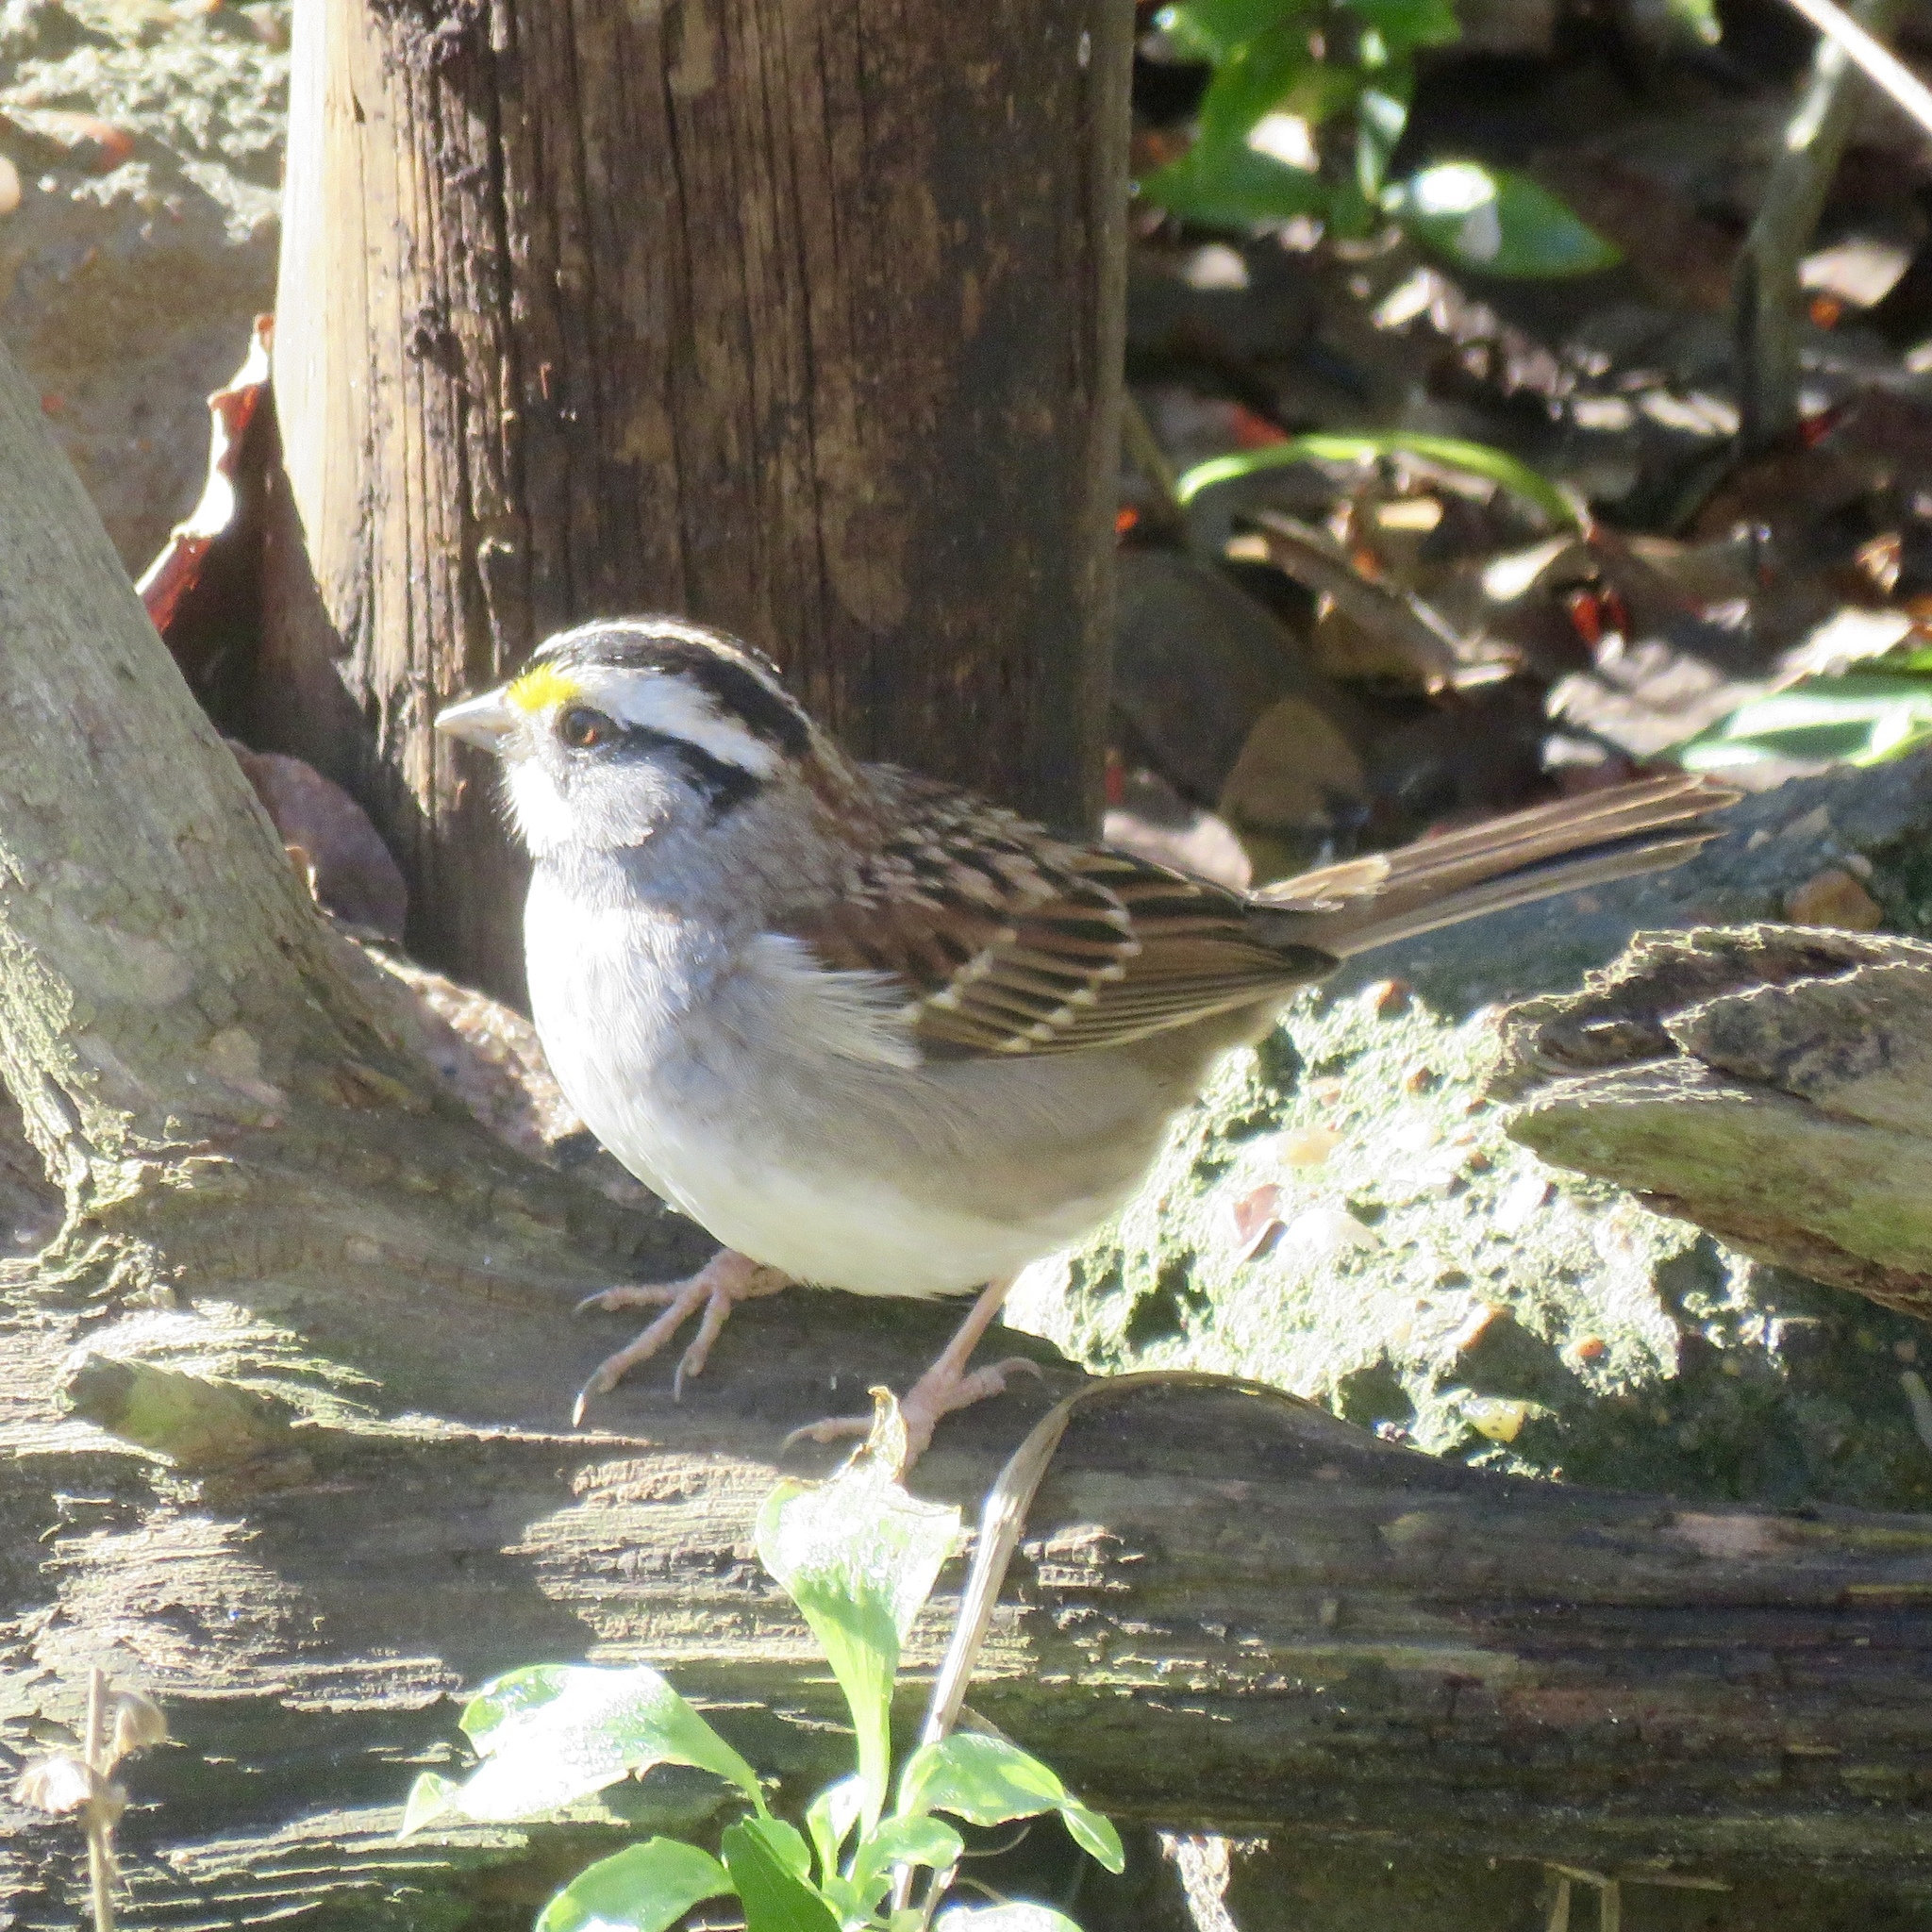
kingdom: Animalia
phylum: Chordata
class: Aves
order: Passeriformes
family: Passerellidae
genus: Zonotrichia
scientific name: Zonotrichia albicollis
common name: White-throated sparrow
